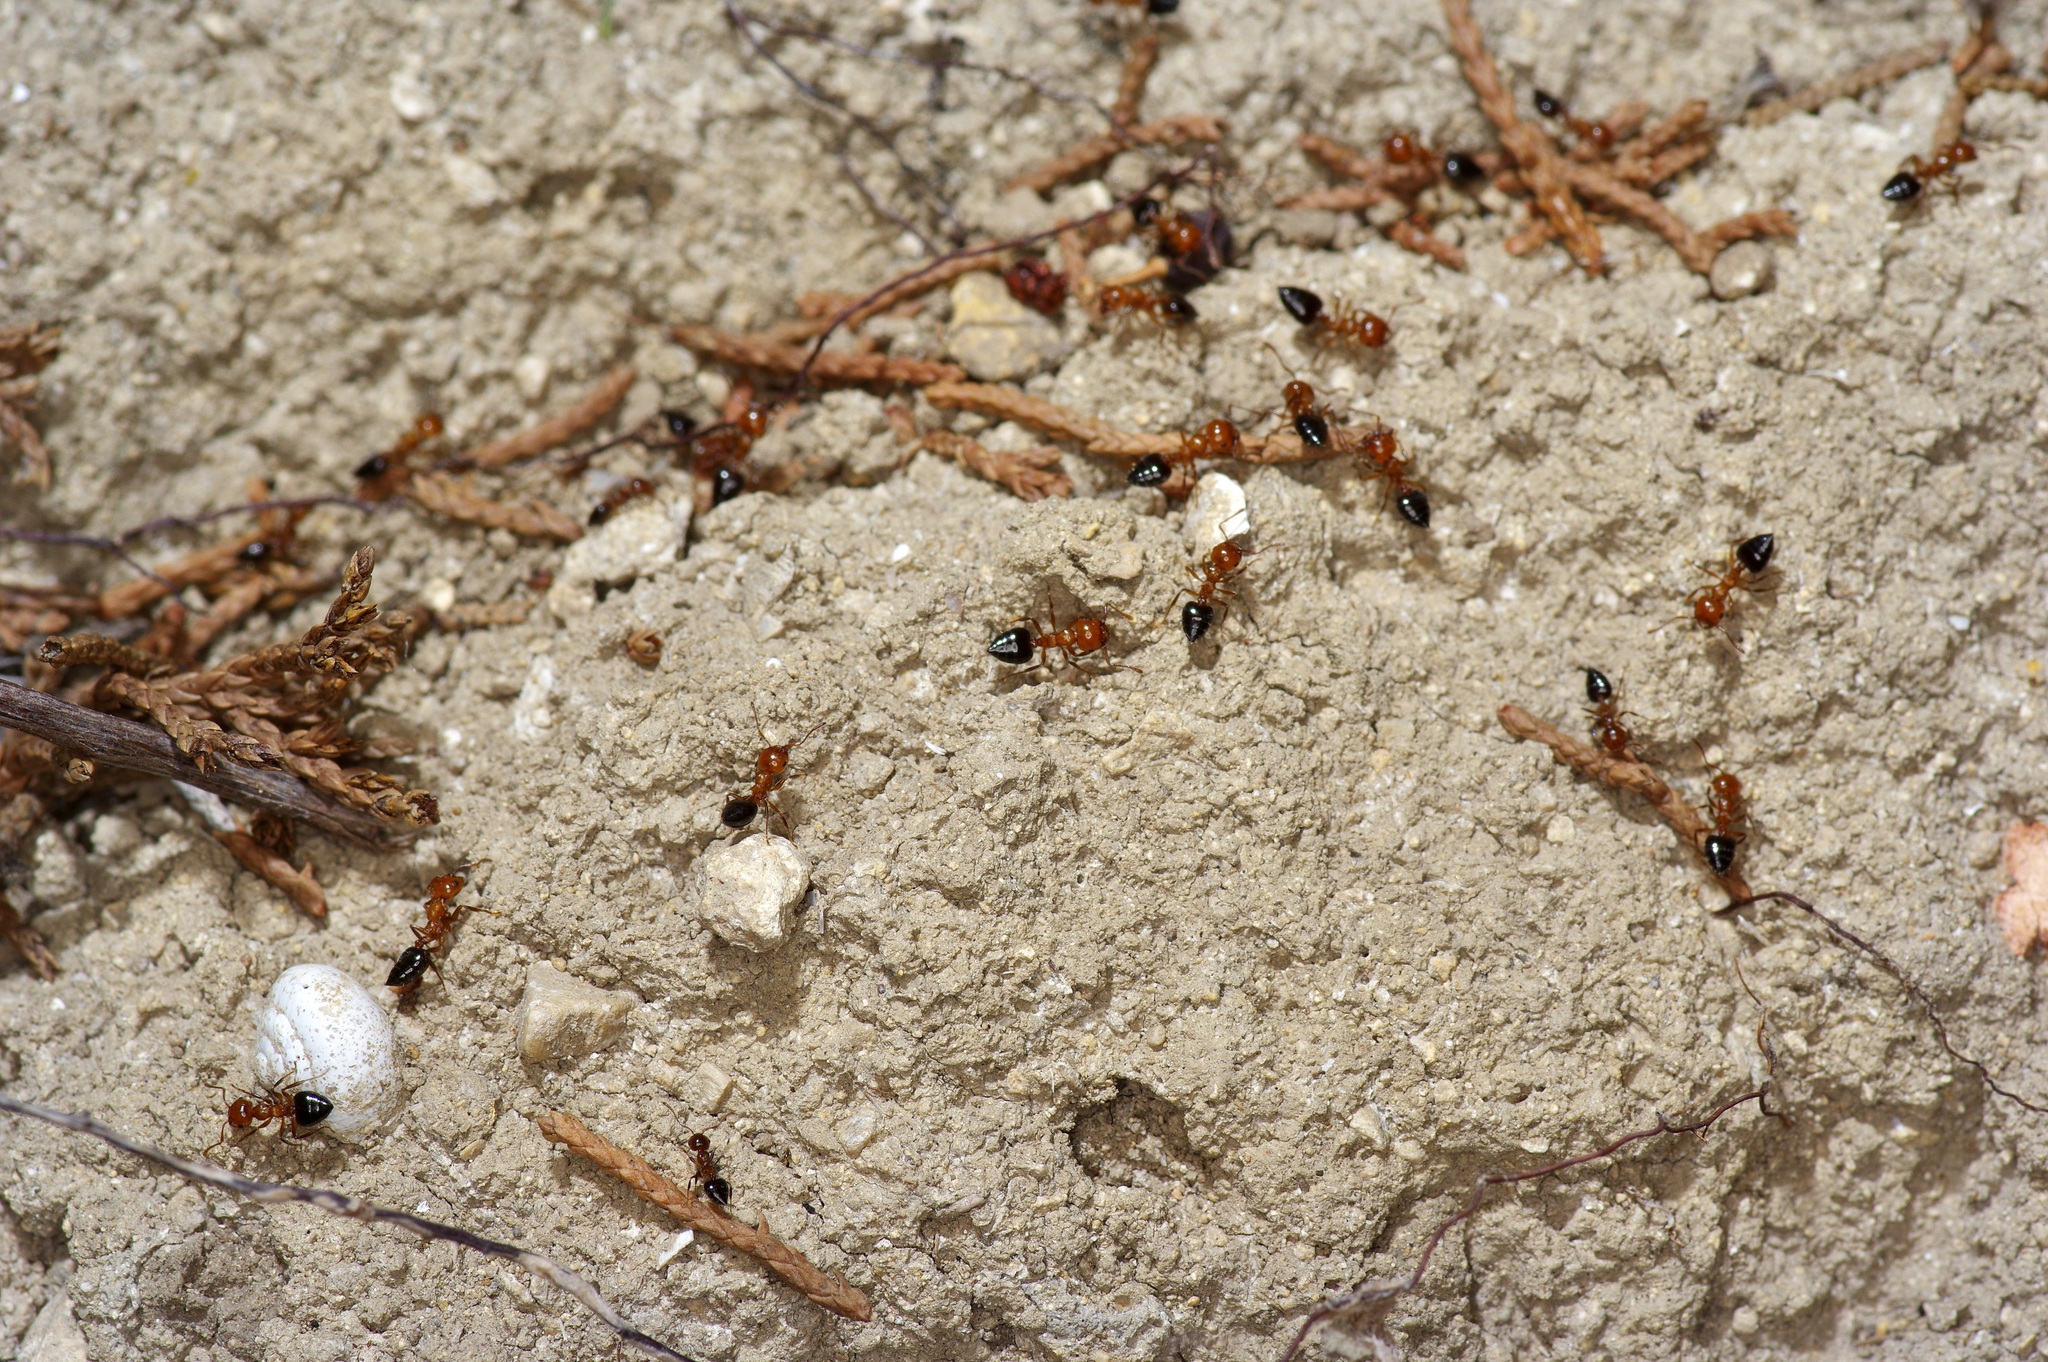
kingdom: Animalia
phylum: Arthropoda
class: Insecta
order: Hymenoptera
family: Formicidae
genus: Crematogaster
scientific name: Crematogaster laeviuscula
